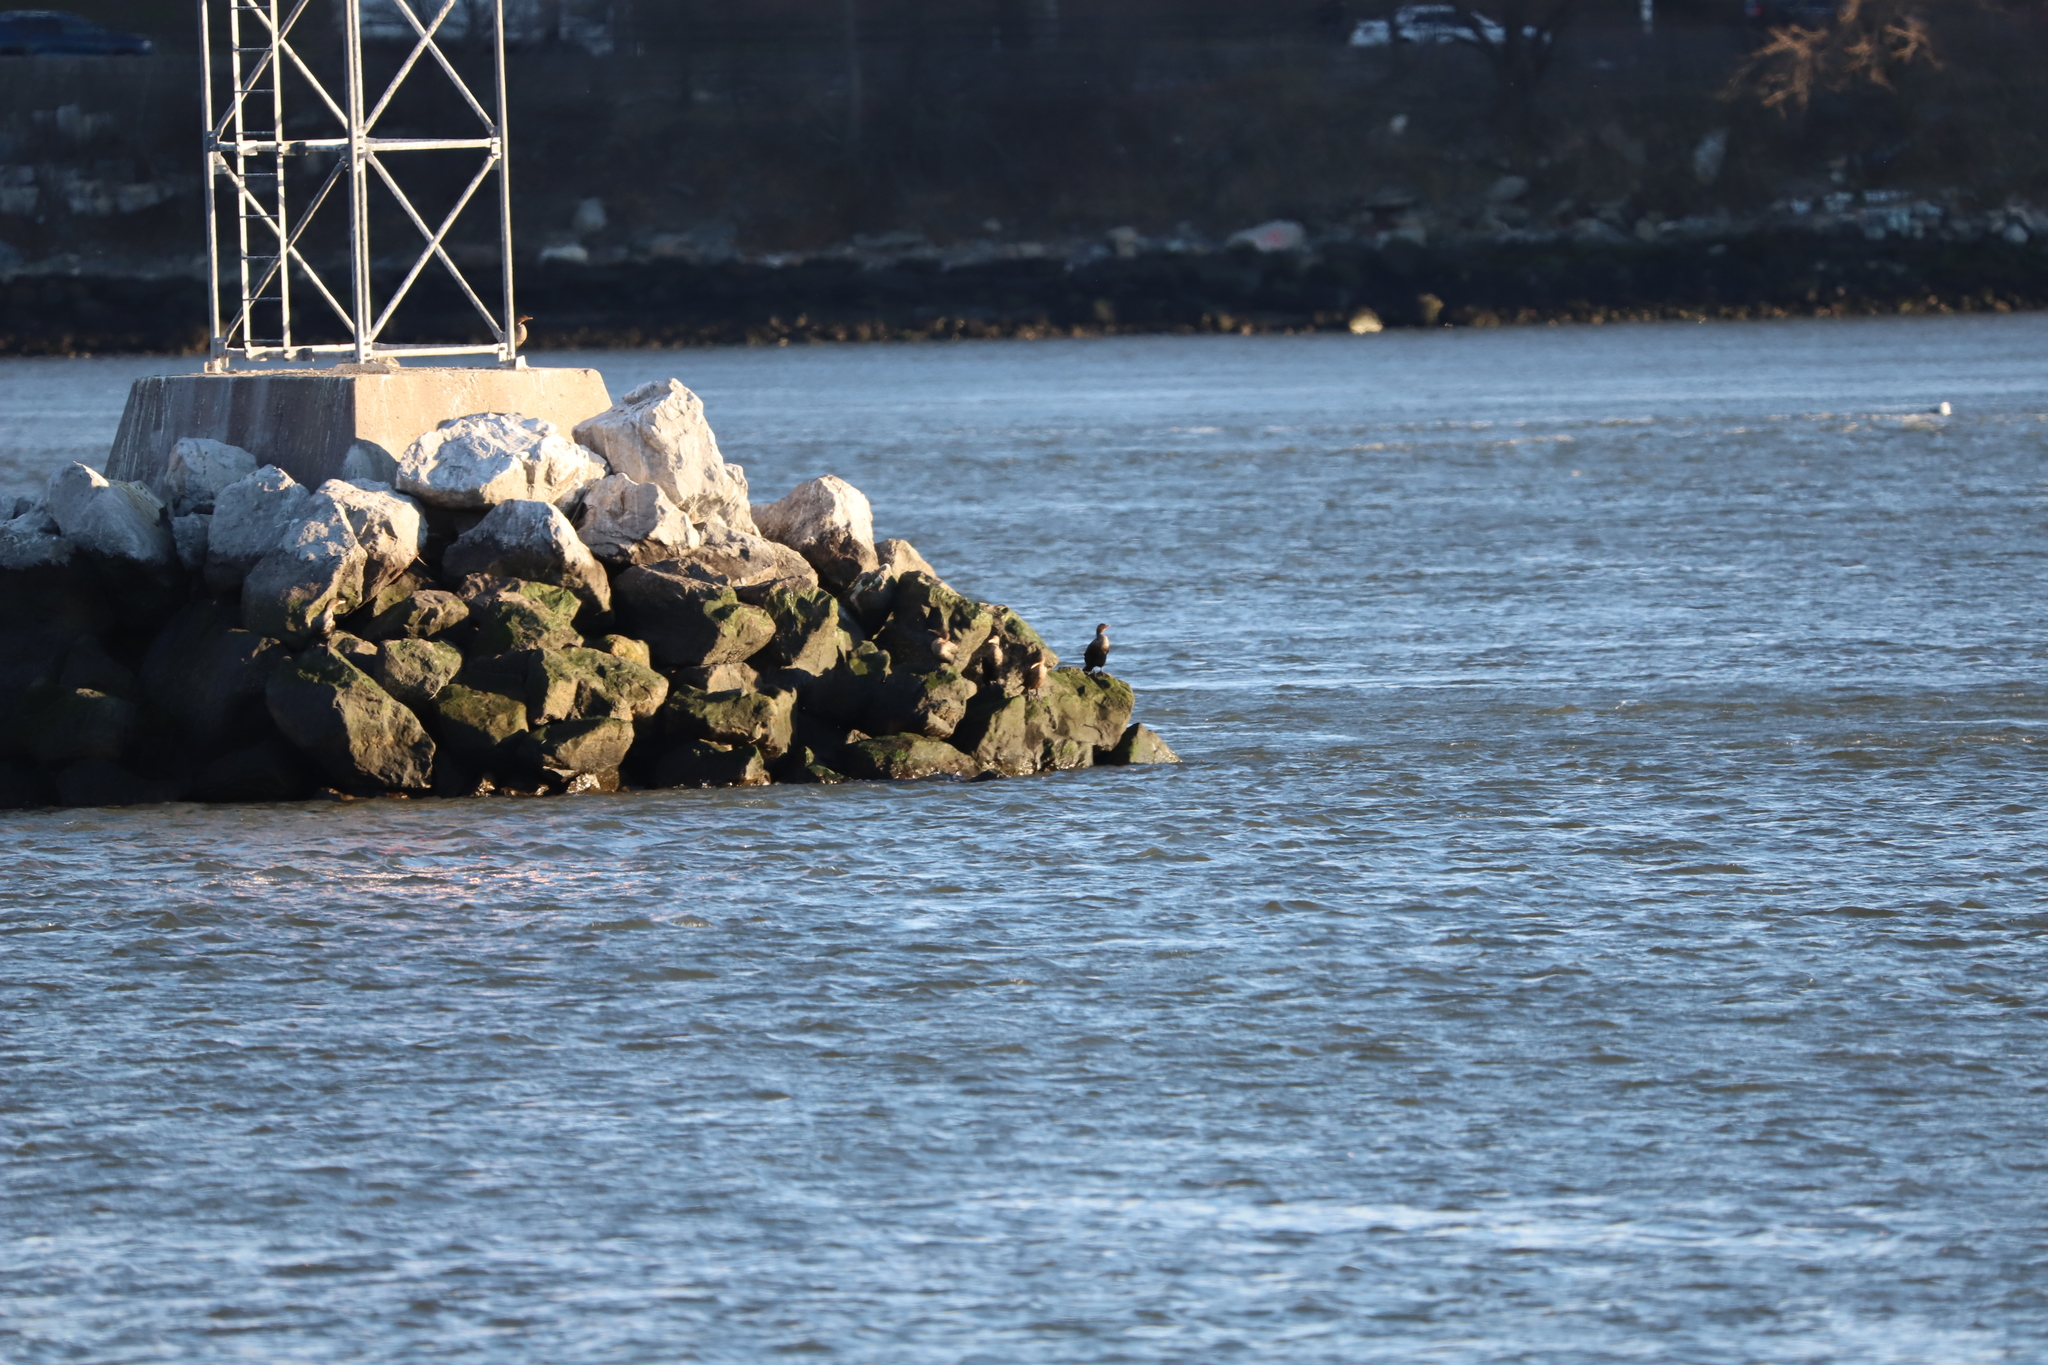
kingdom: Animalia
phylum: Chordata
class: Aves
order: Suliformes
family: Phalacrocoracidae
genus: Phalacrocorax
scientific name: Phalacrocorax auritus
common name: Double-crested cormorant
